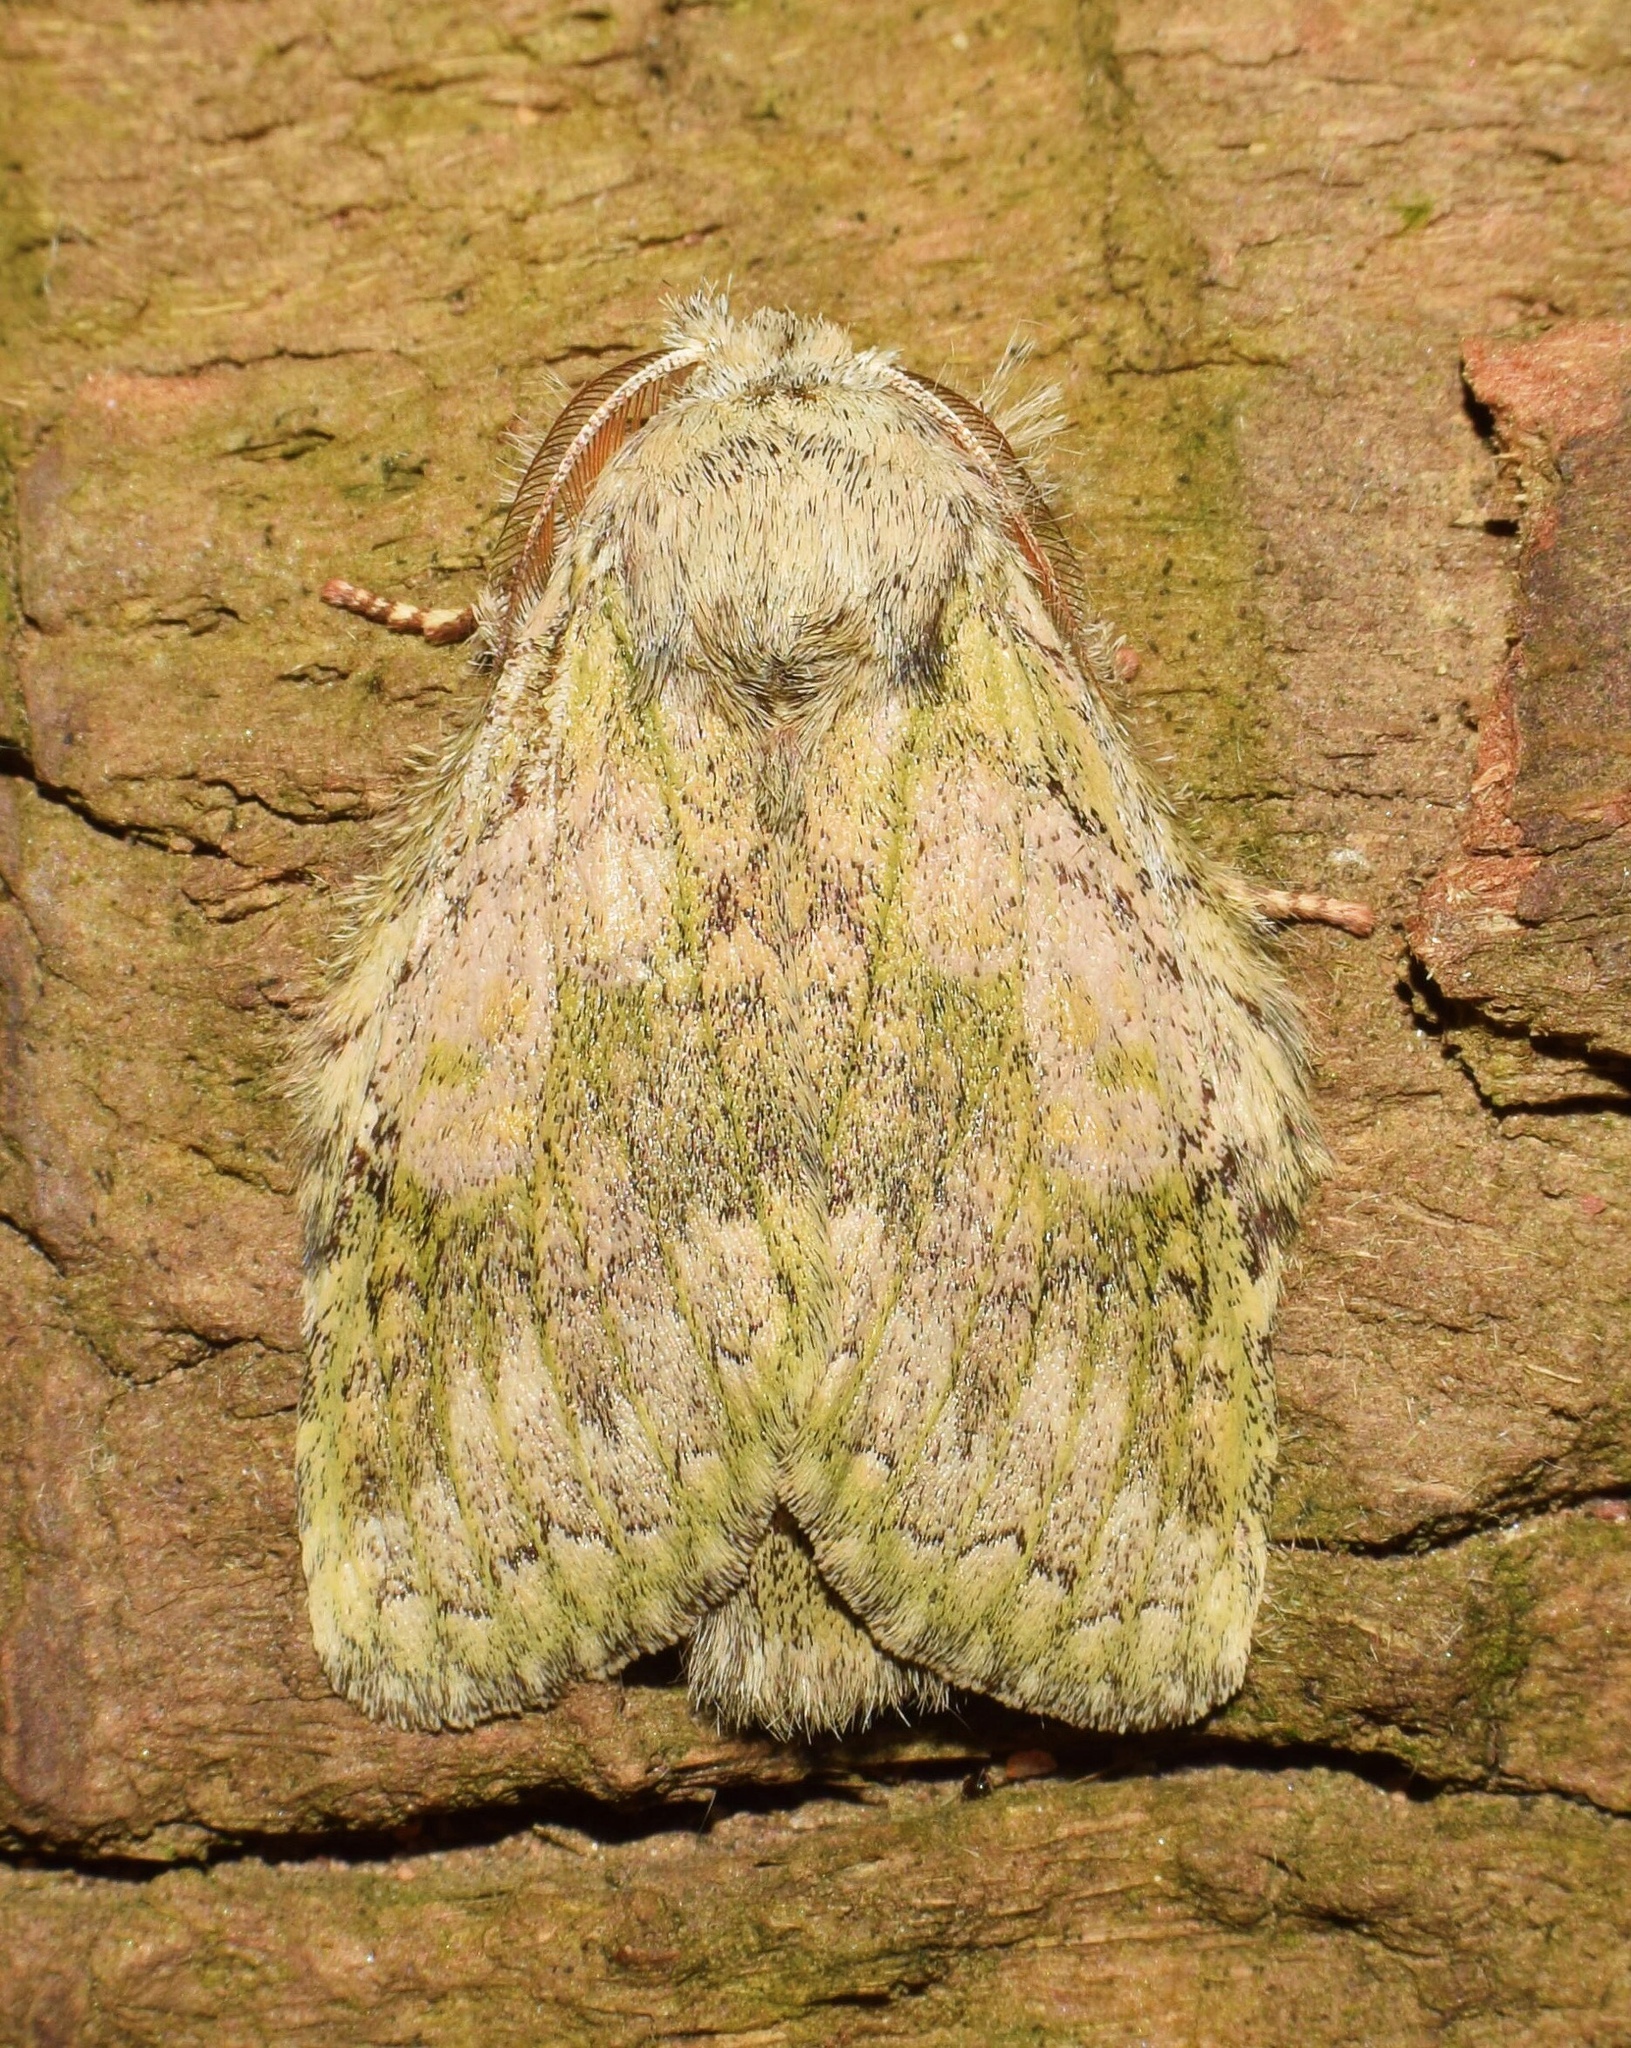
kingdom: Animalia
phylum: Arthropoda
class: Insecta
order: Lepidoptera
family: Notodontidae
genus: Desmeocraera
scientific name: Desmeocraera interpellatrix
